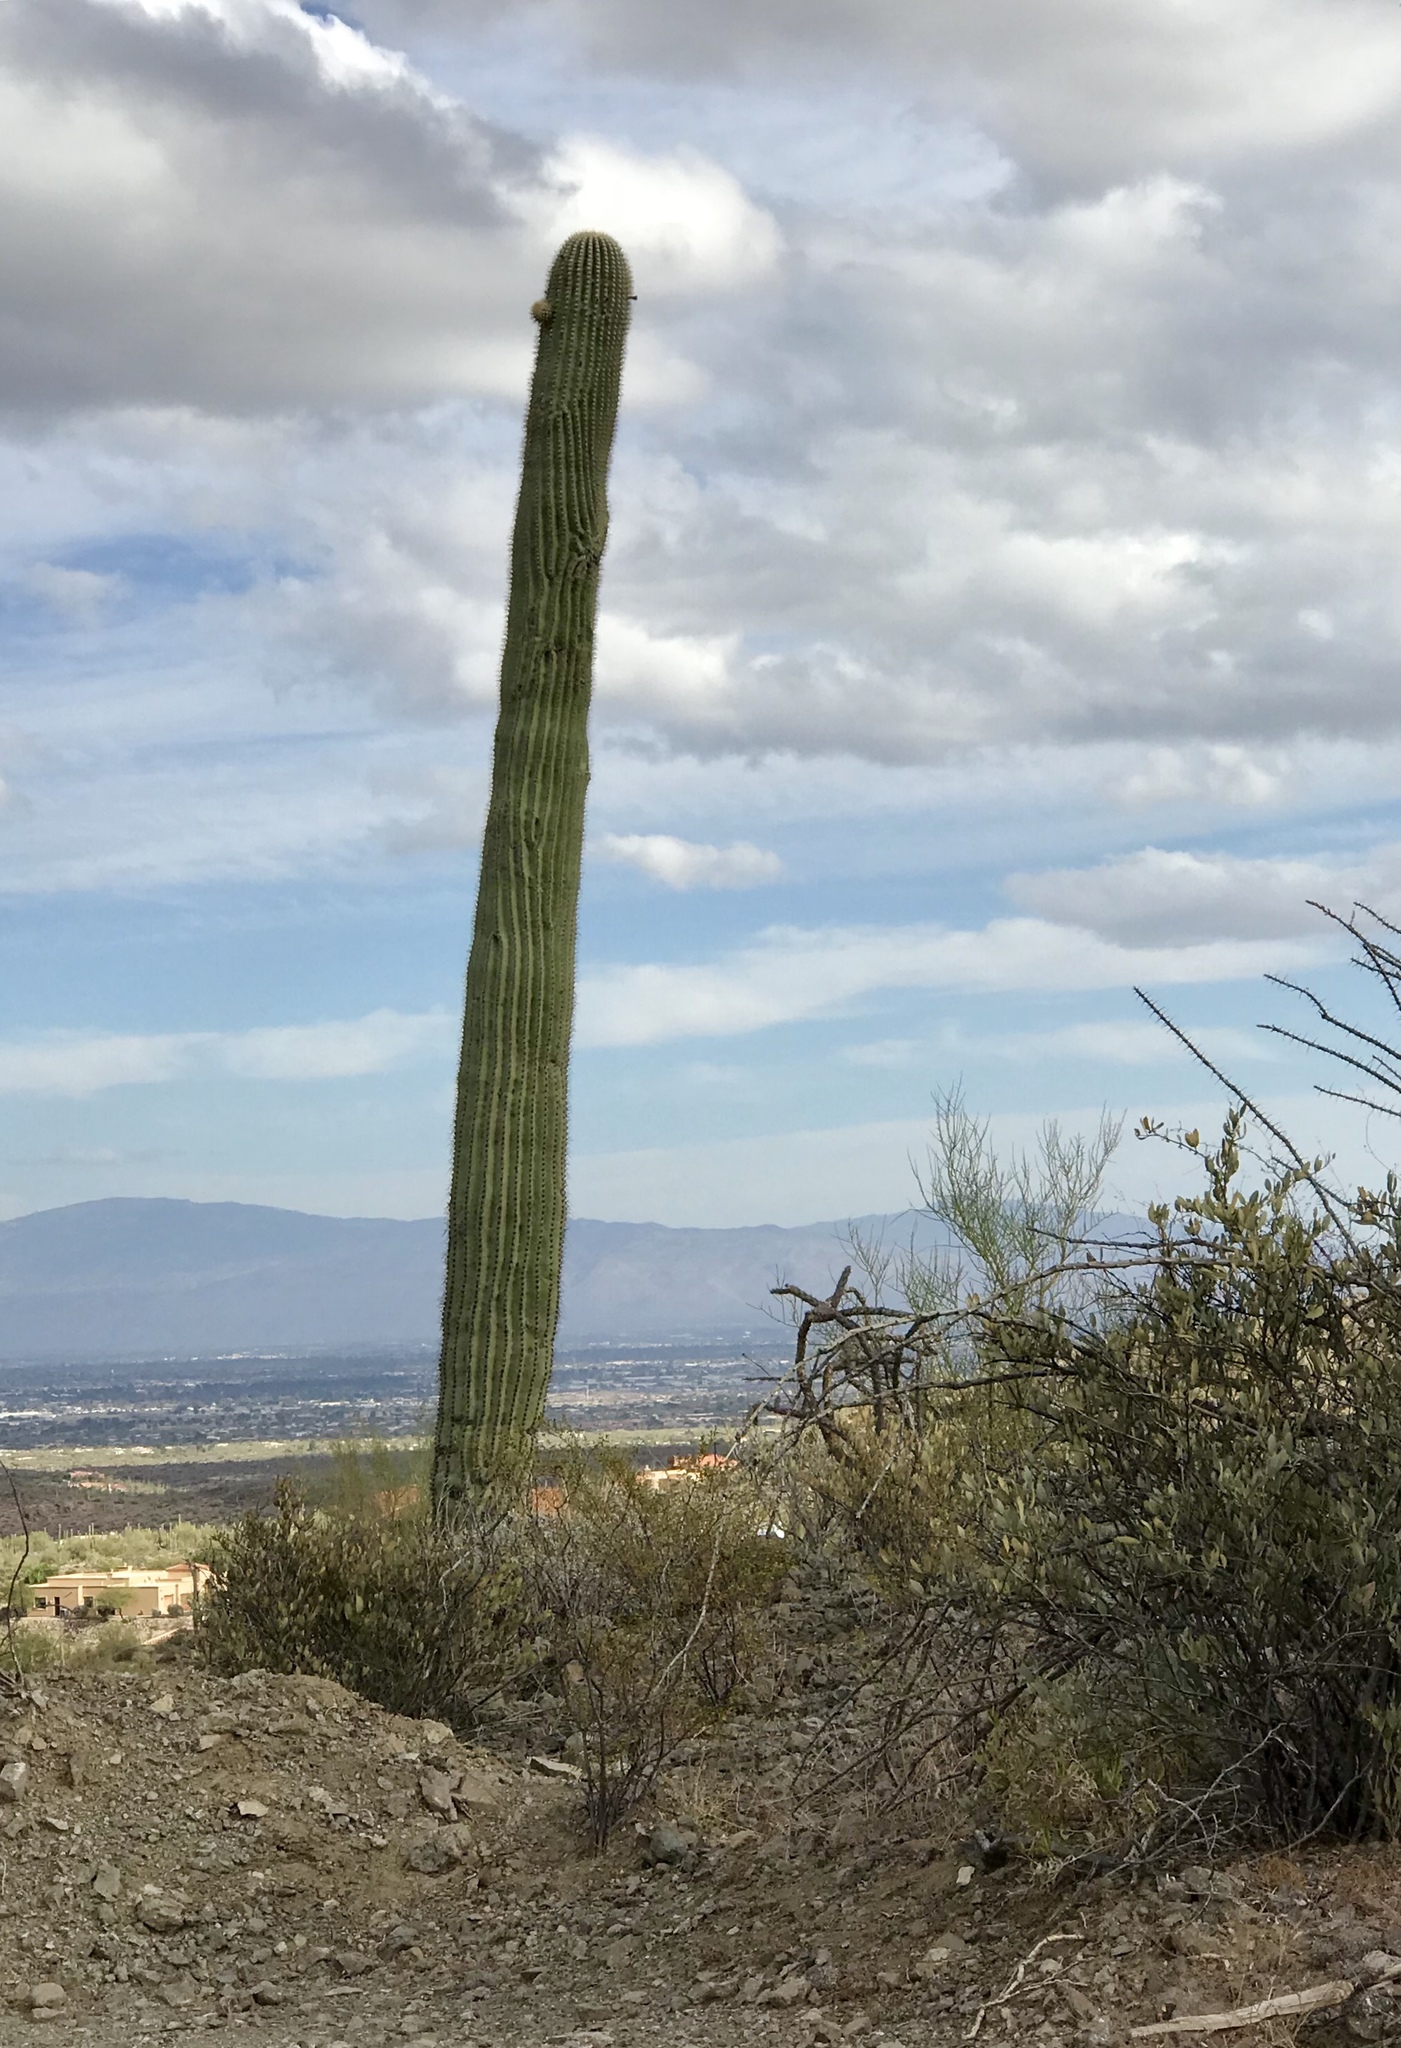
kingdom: Plantae
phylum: Tracheophyta
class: Magnoliopsida
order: Caryophyllales
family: Cactaceae
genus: Carnegiea
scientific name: Carnegiea gigantea
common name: Saguaro
